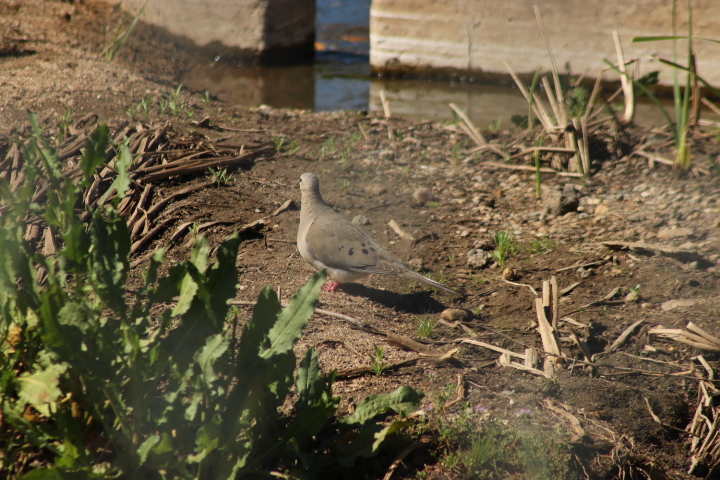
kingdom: Animalia
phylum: Chordata
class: Aves
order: Columbiformes
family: Columbidae
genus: Zenaida
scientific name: Zenaida macroura
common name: Mourning dove
